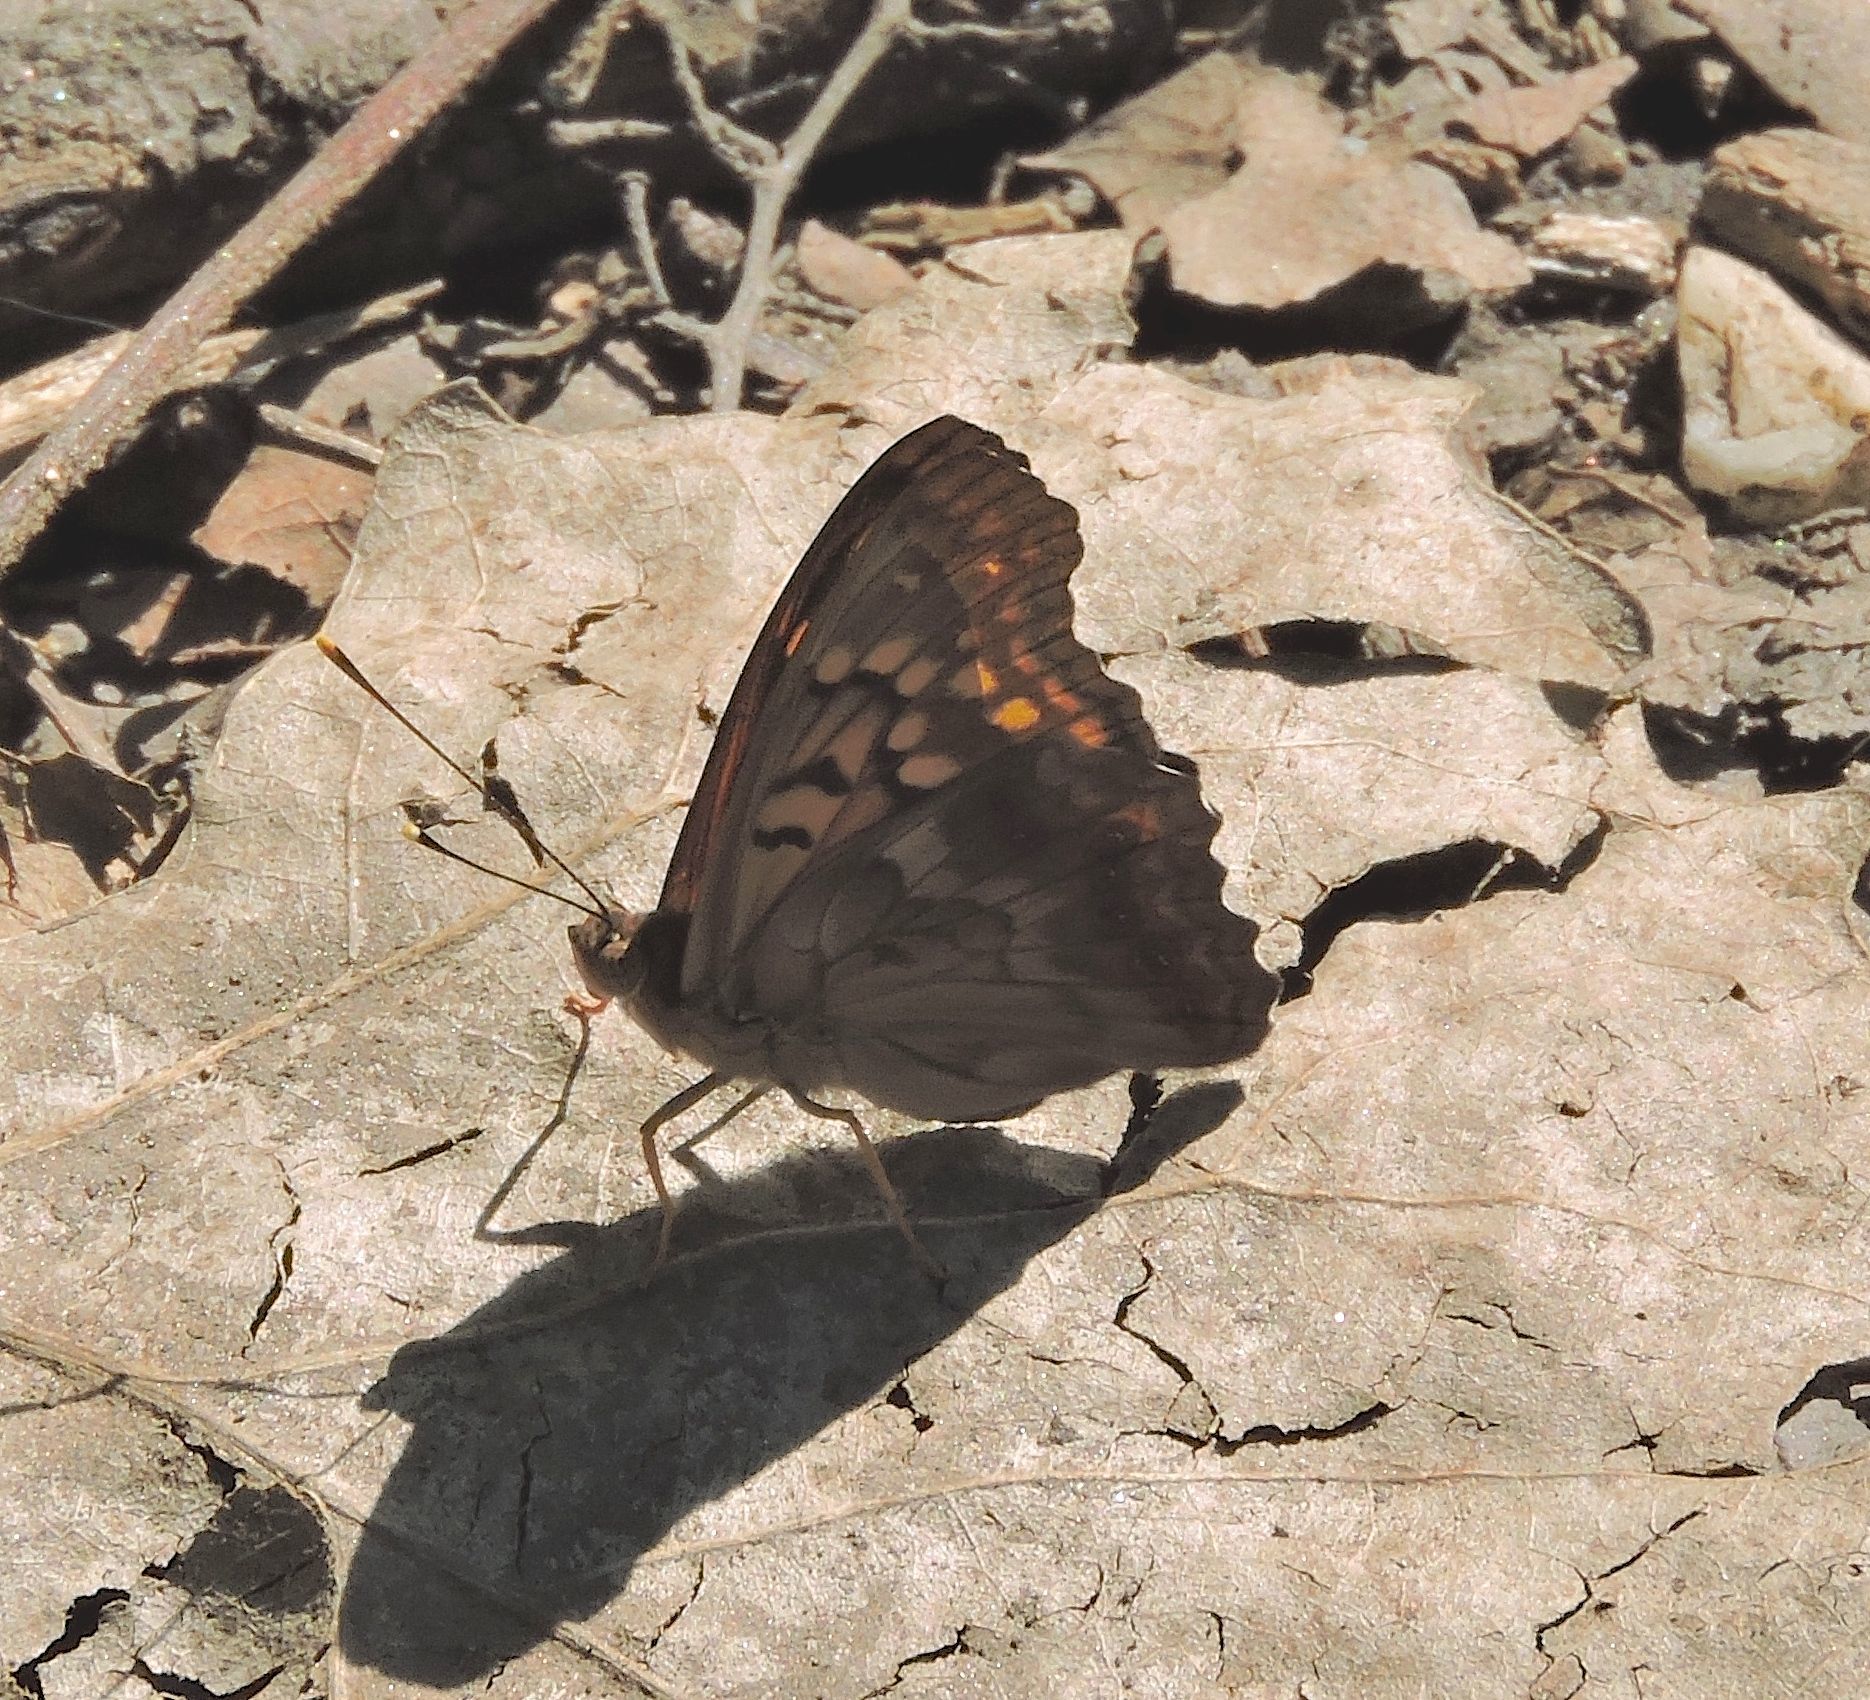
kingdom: Animalia
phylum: Arthropoda
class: Insecta
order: Lepidoptera
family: Nymphalidae
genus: Asterocampa
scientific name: Asterocampa clyton
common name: Tawny emperor
